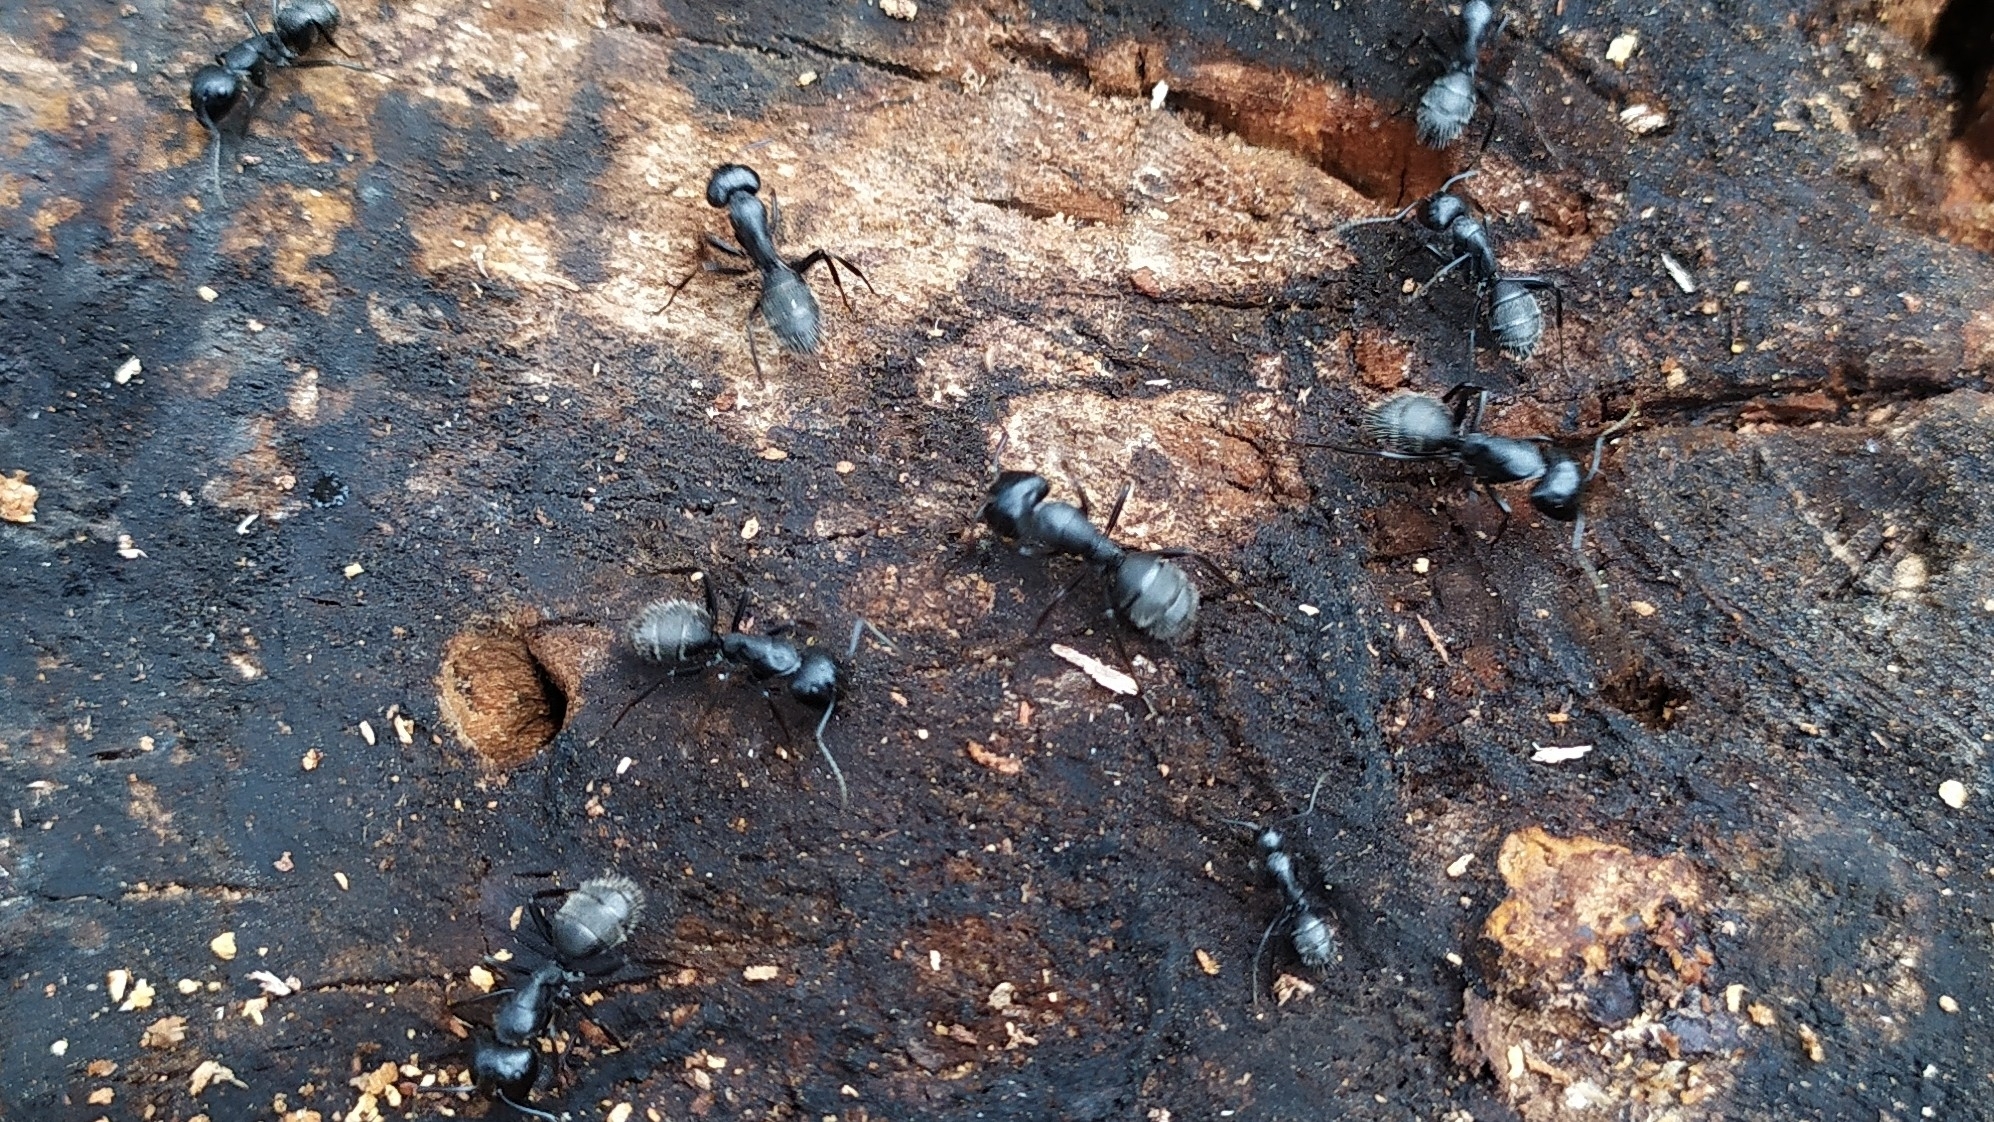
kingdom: Animalia
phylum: Arthropoda
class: Insecta
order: Hymenoptera
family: Formicidae
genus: Camponotus
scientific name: Camponotus vagus
